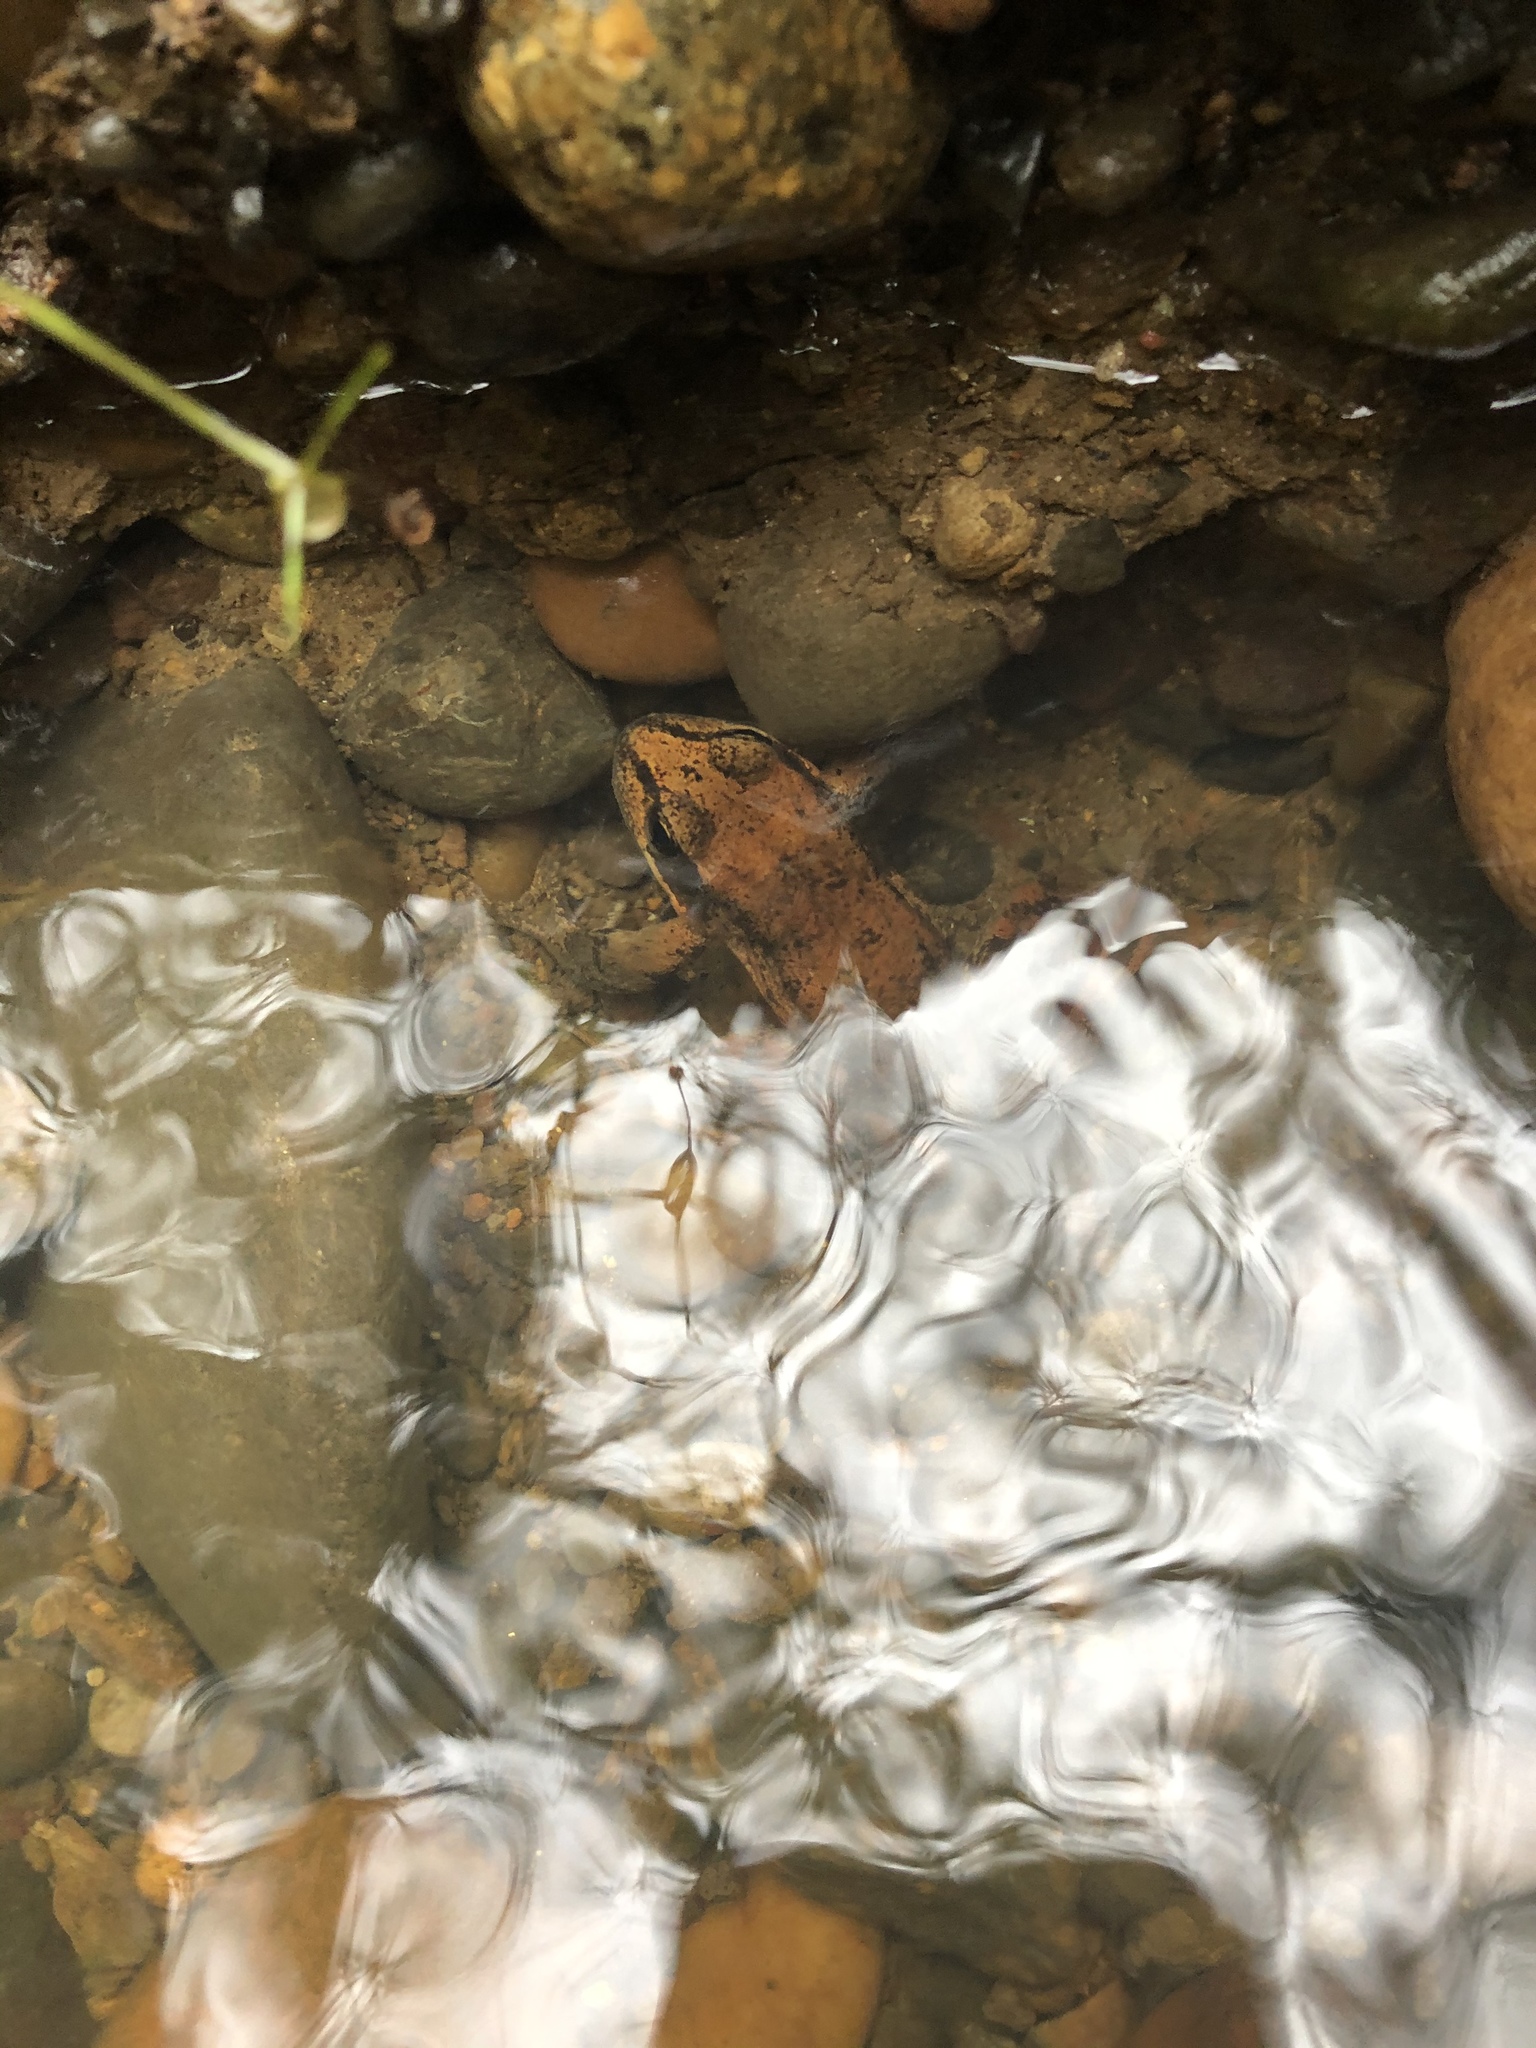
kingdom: Animalia
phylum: Chordata
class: Amphibia
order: Anura
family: Ranidae
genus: Rana
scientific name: Rana aurora
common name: Red-legged frog
